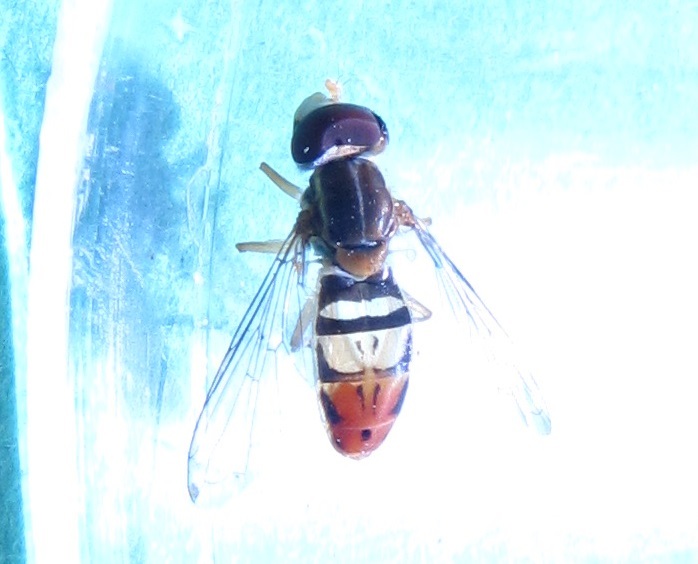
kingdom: Animalia
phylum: Arthropoda
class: Insecta
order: Diptera
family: Syrphidae
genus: Toxomerus
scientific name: Toxomerus marginatus
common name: Syrphid fly
